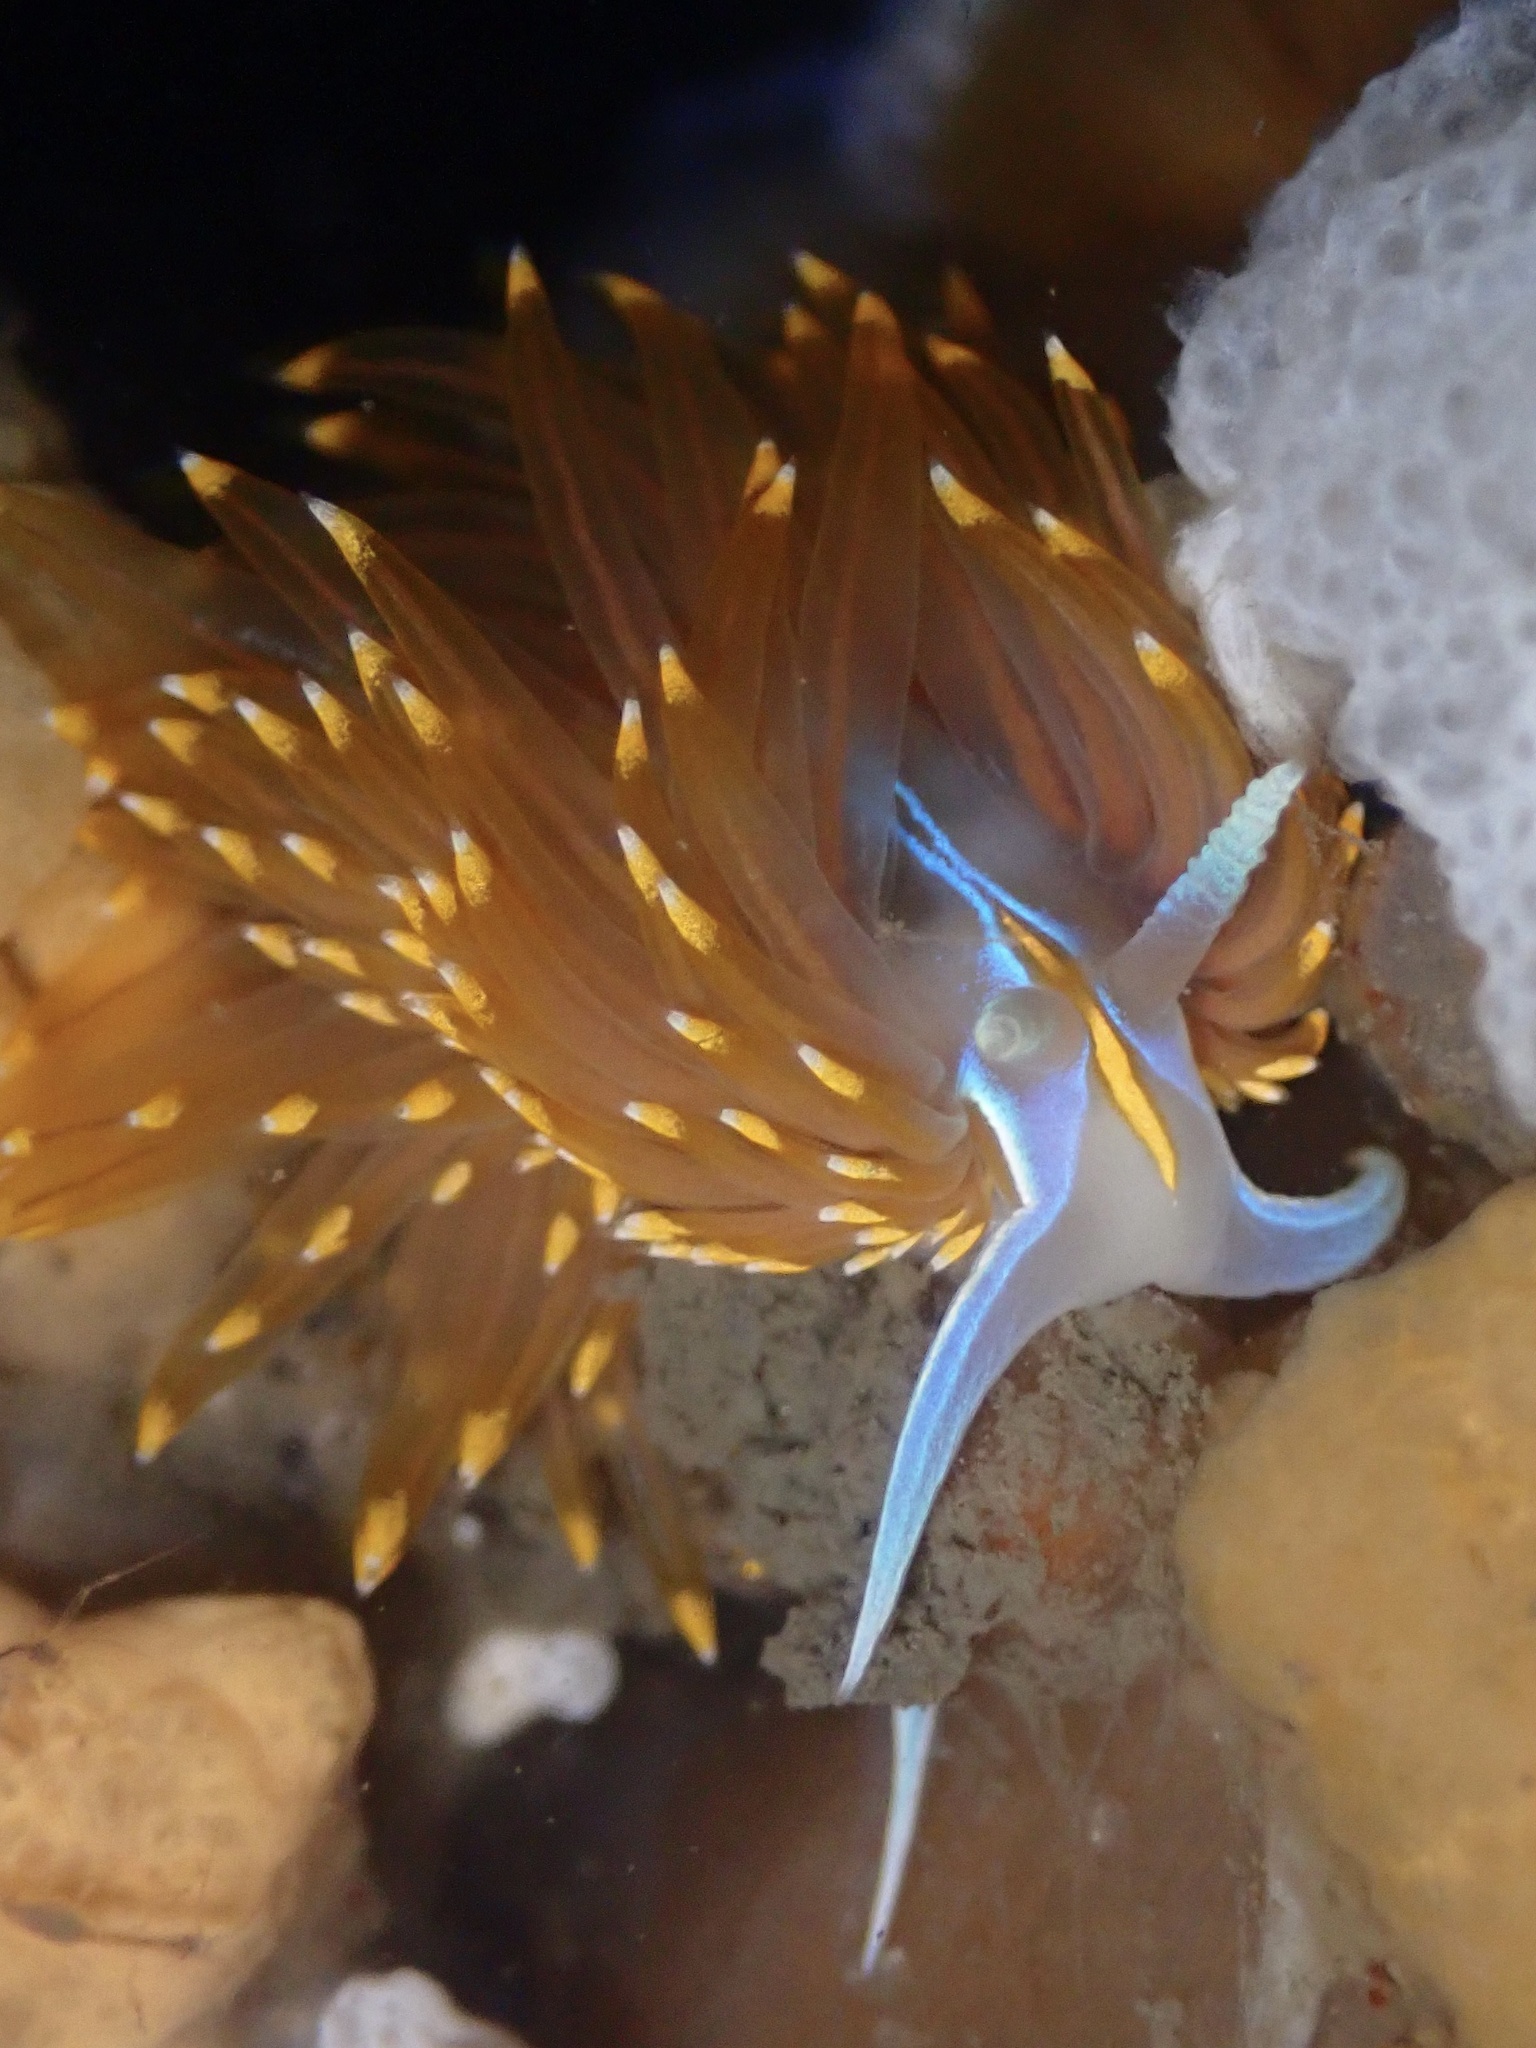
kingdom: Animalia
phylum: Mollusca
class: Gastropoda
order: Nudibranchia
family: Myrrhinidae
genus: Hermissenda
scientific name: Hermissenda opalescens
